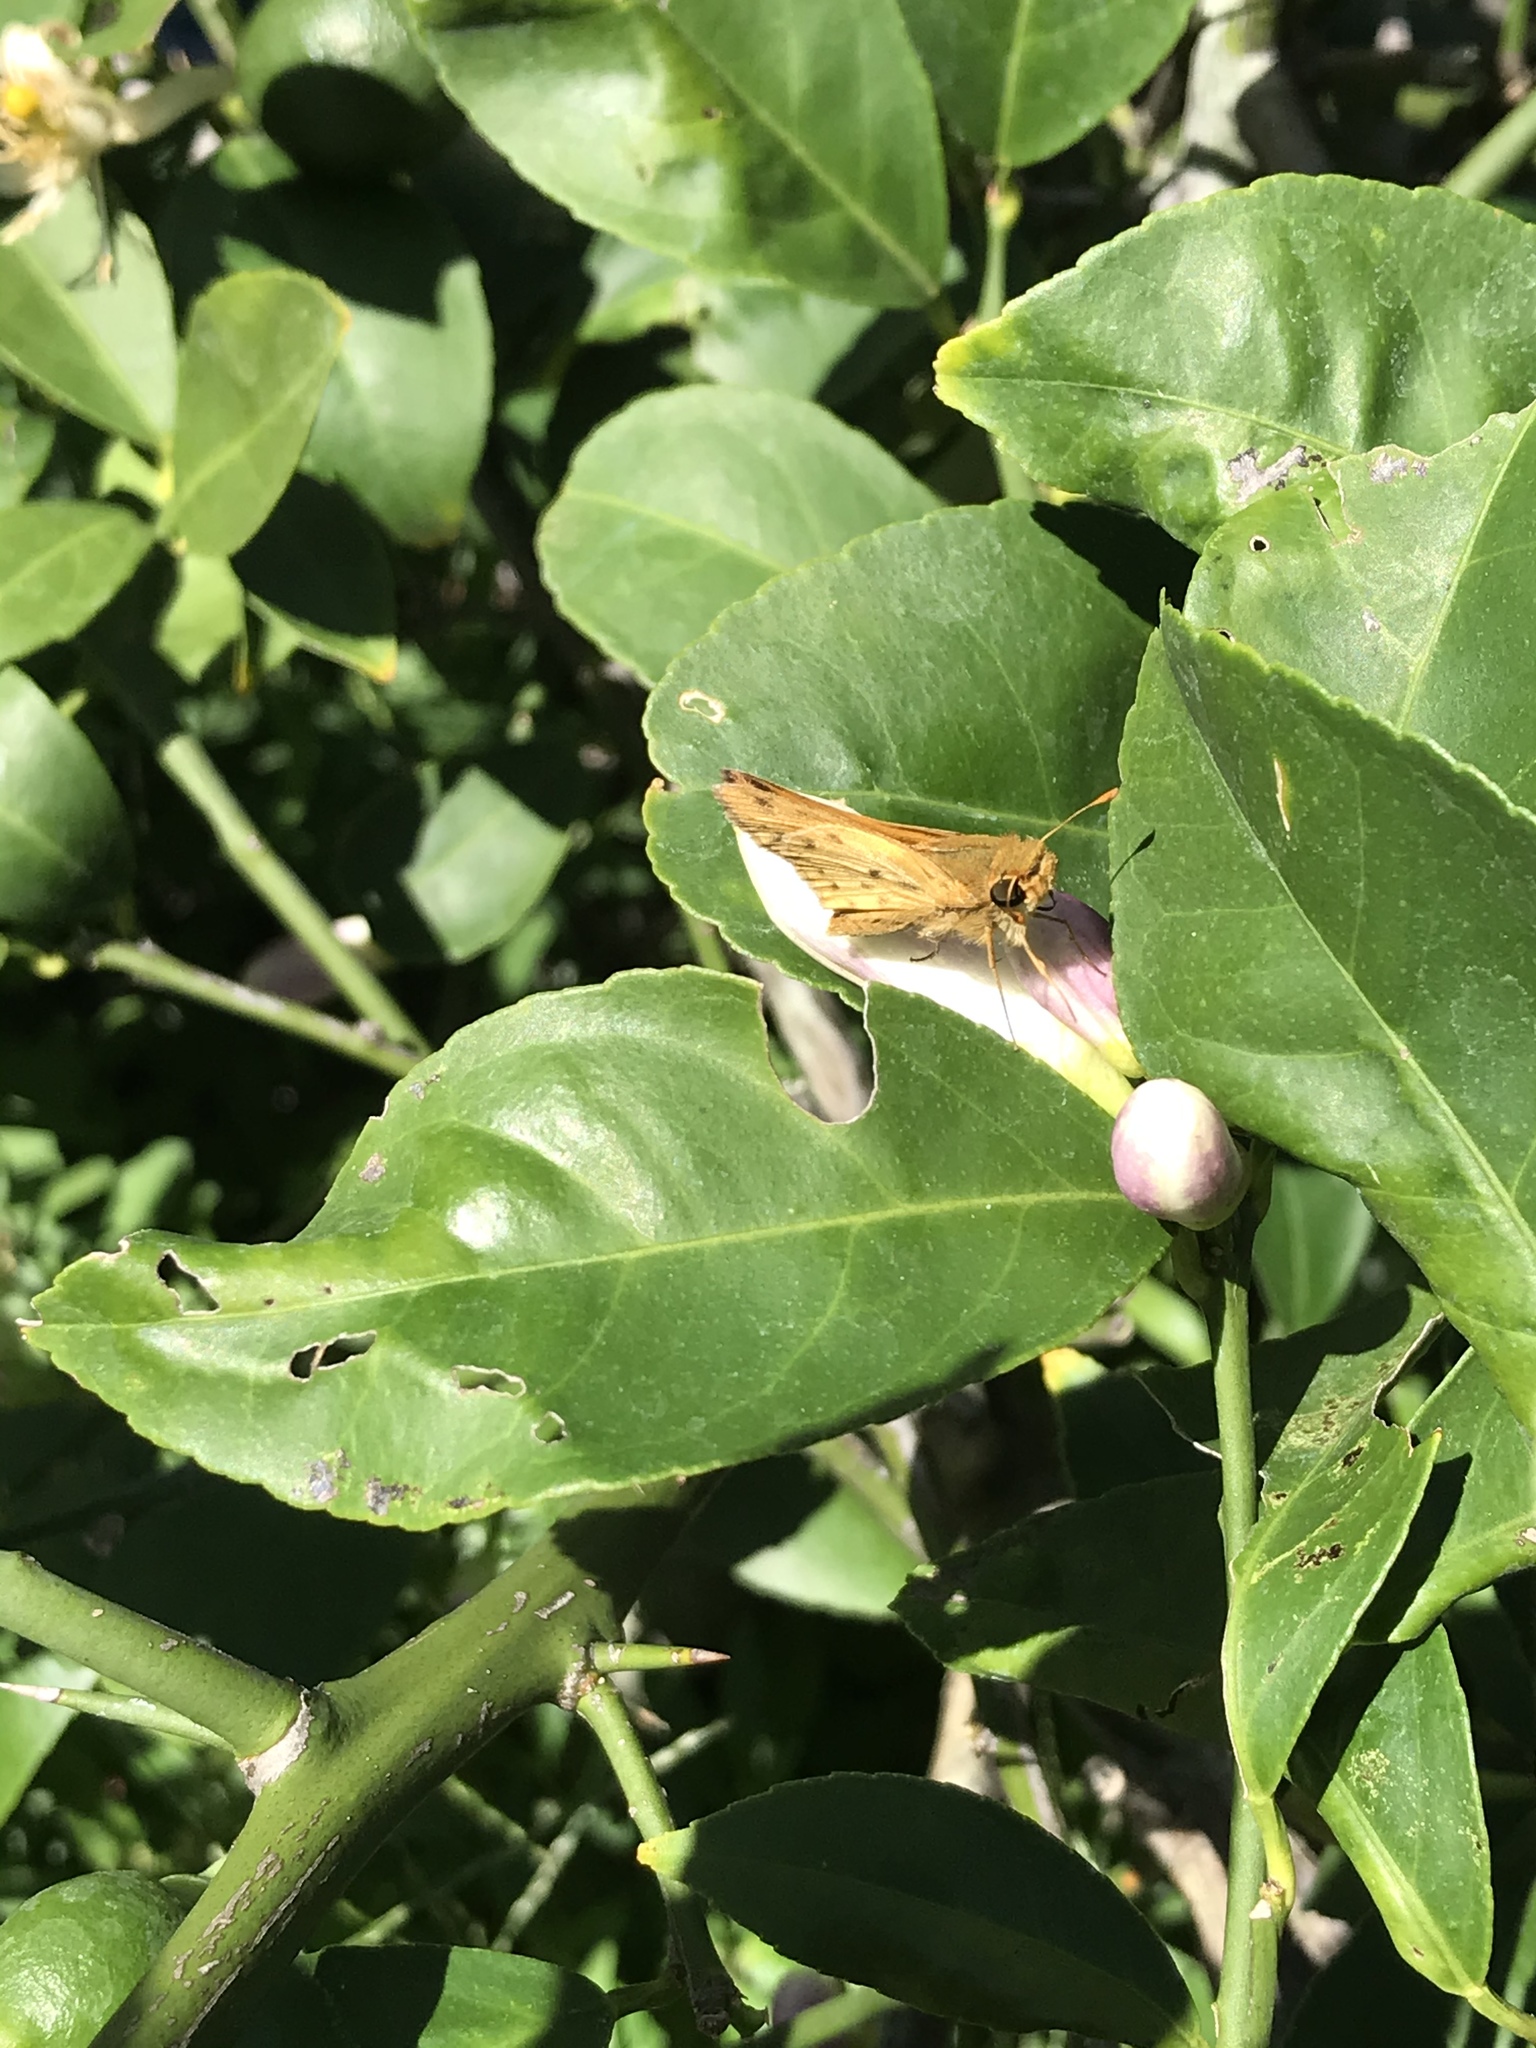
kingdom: Animalia
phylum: Arthropoda
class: Insecta
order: Lepidoptera
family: Hesperiidae
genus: Hylephila
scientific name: Hylephila phyleus
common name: Fiery skipper
